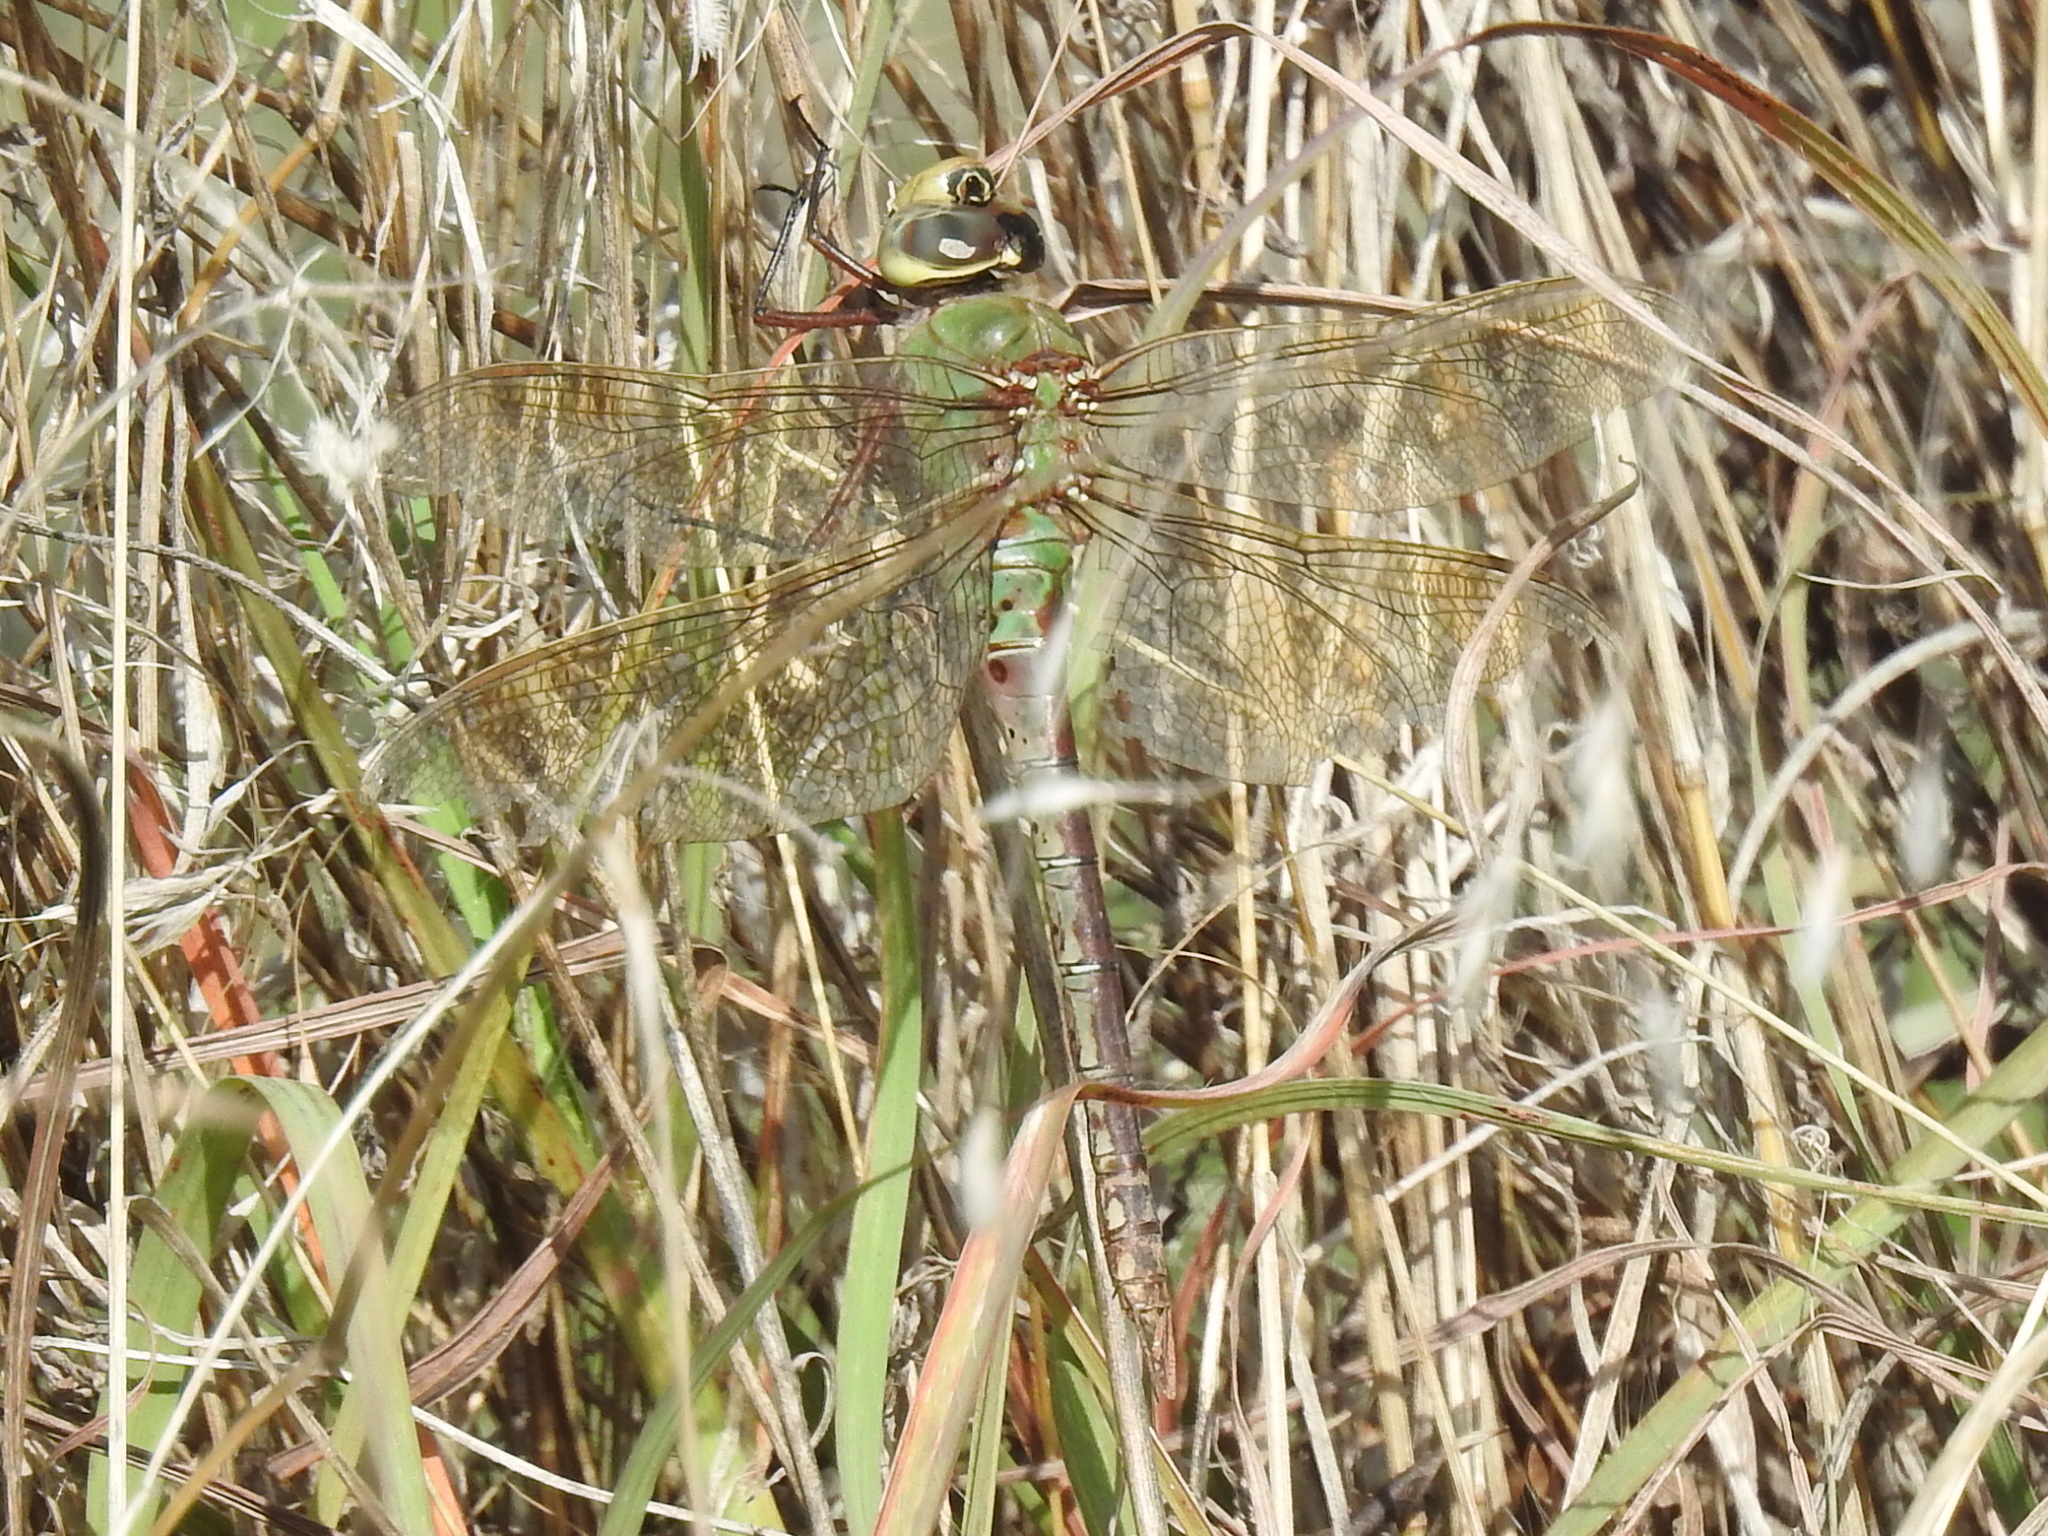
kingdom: Animalia
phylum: Arthropoda
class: Insecta
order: Odonata
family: Aeshnidae
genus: Anax
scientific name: Anax junius
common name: Common green darner
